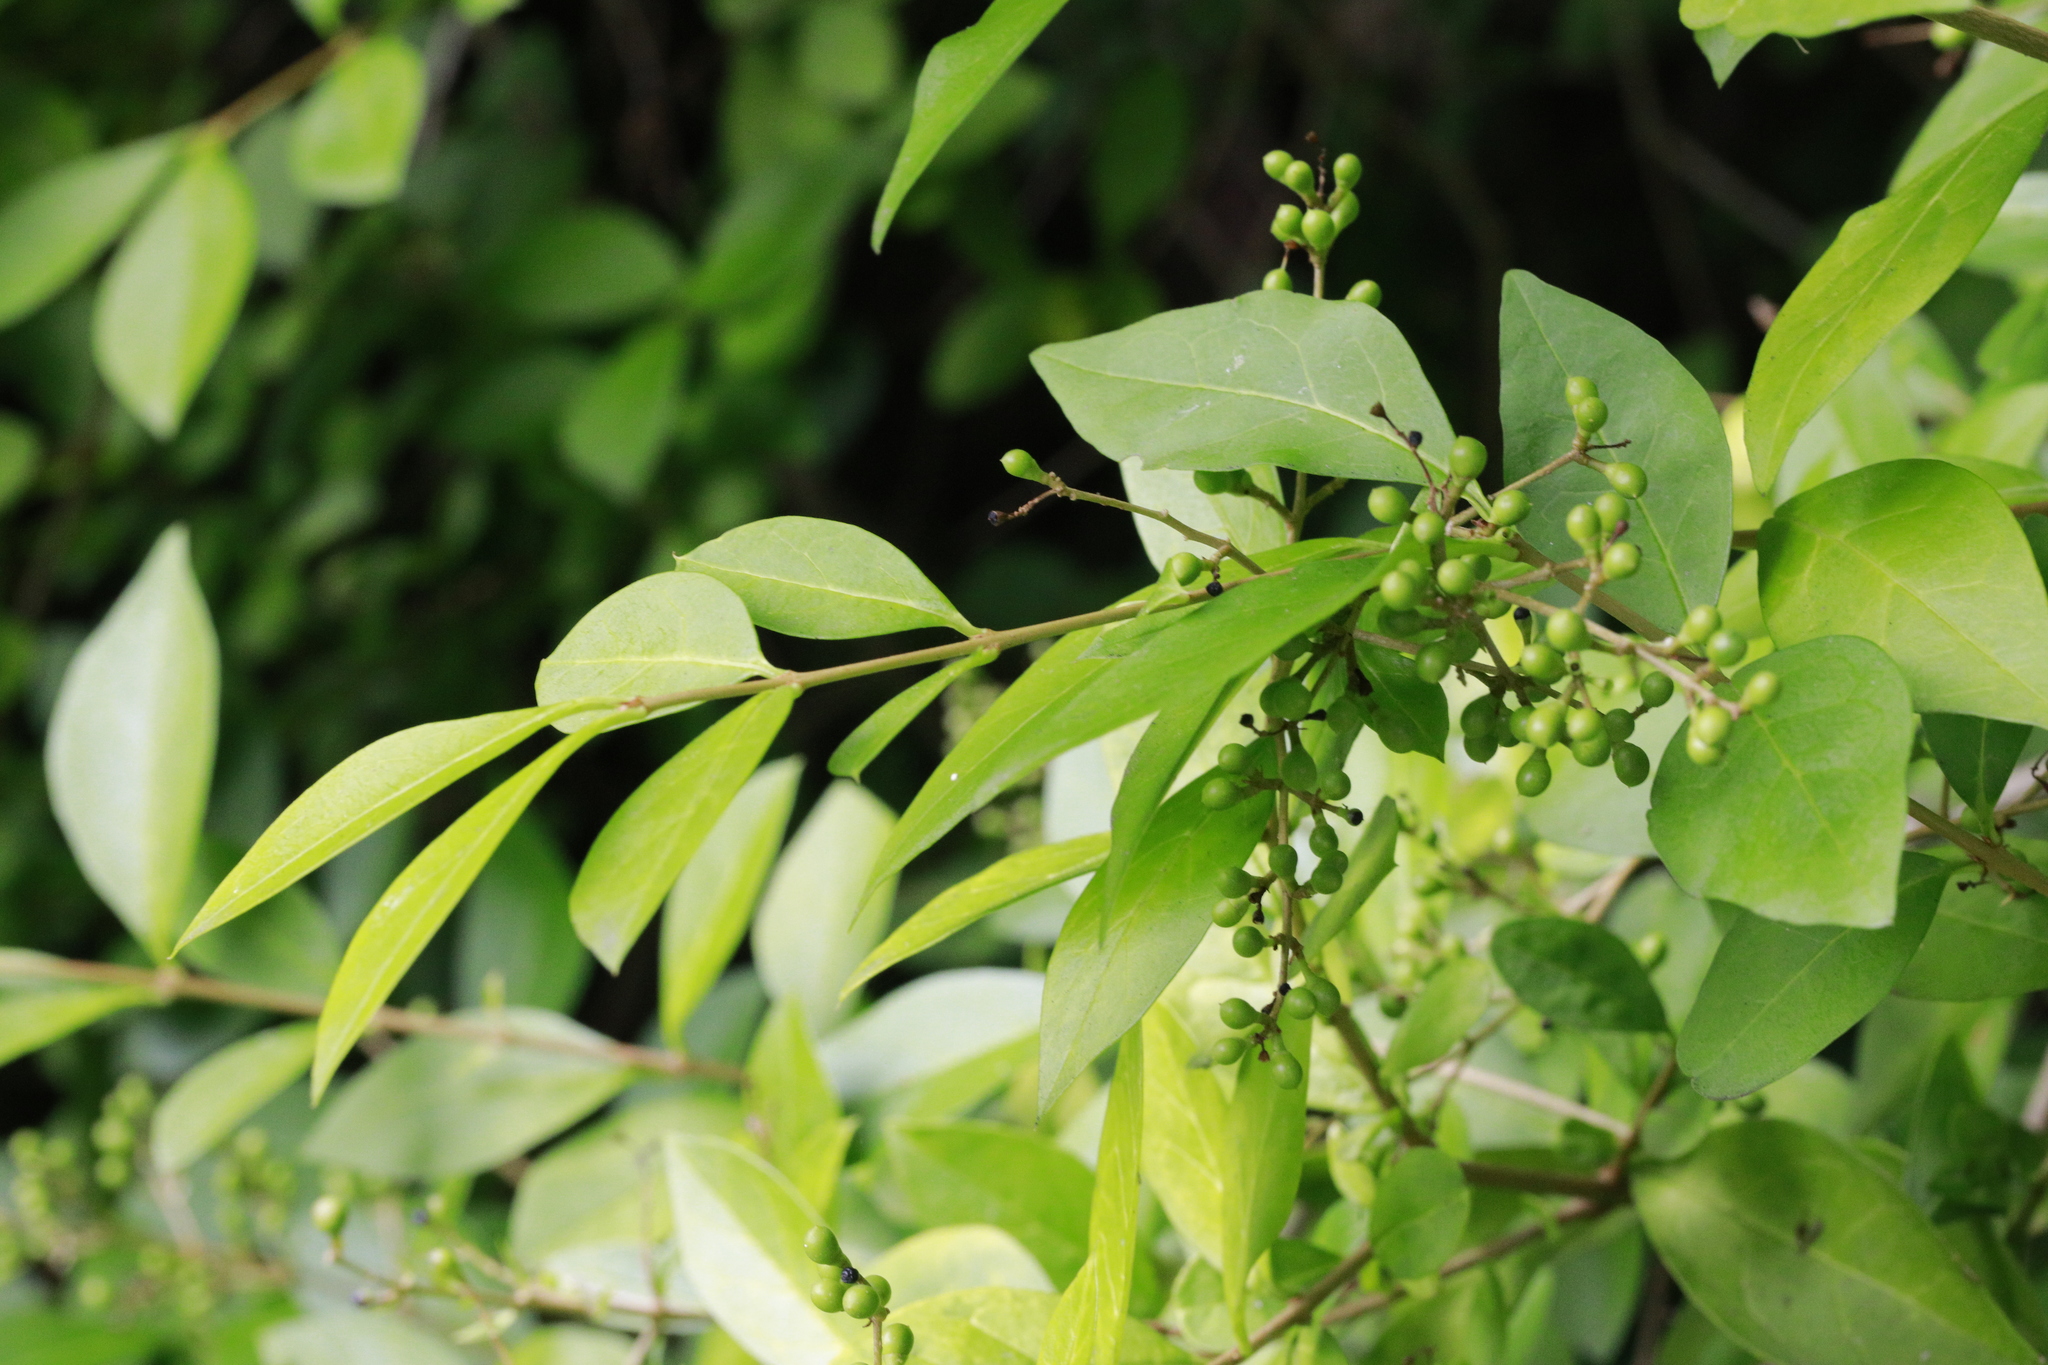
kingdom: Plantae
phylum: Tracheophyta
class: Magnoliopsida
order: Lamiales
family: Oleaceae
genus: Ligustrum
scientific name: Ligustrum ovalifolium
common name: California privet
